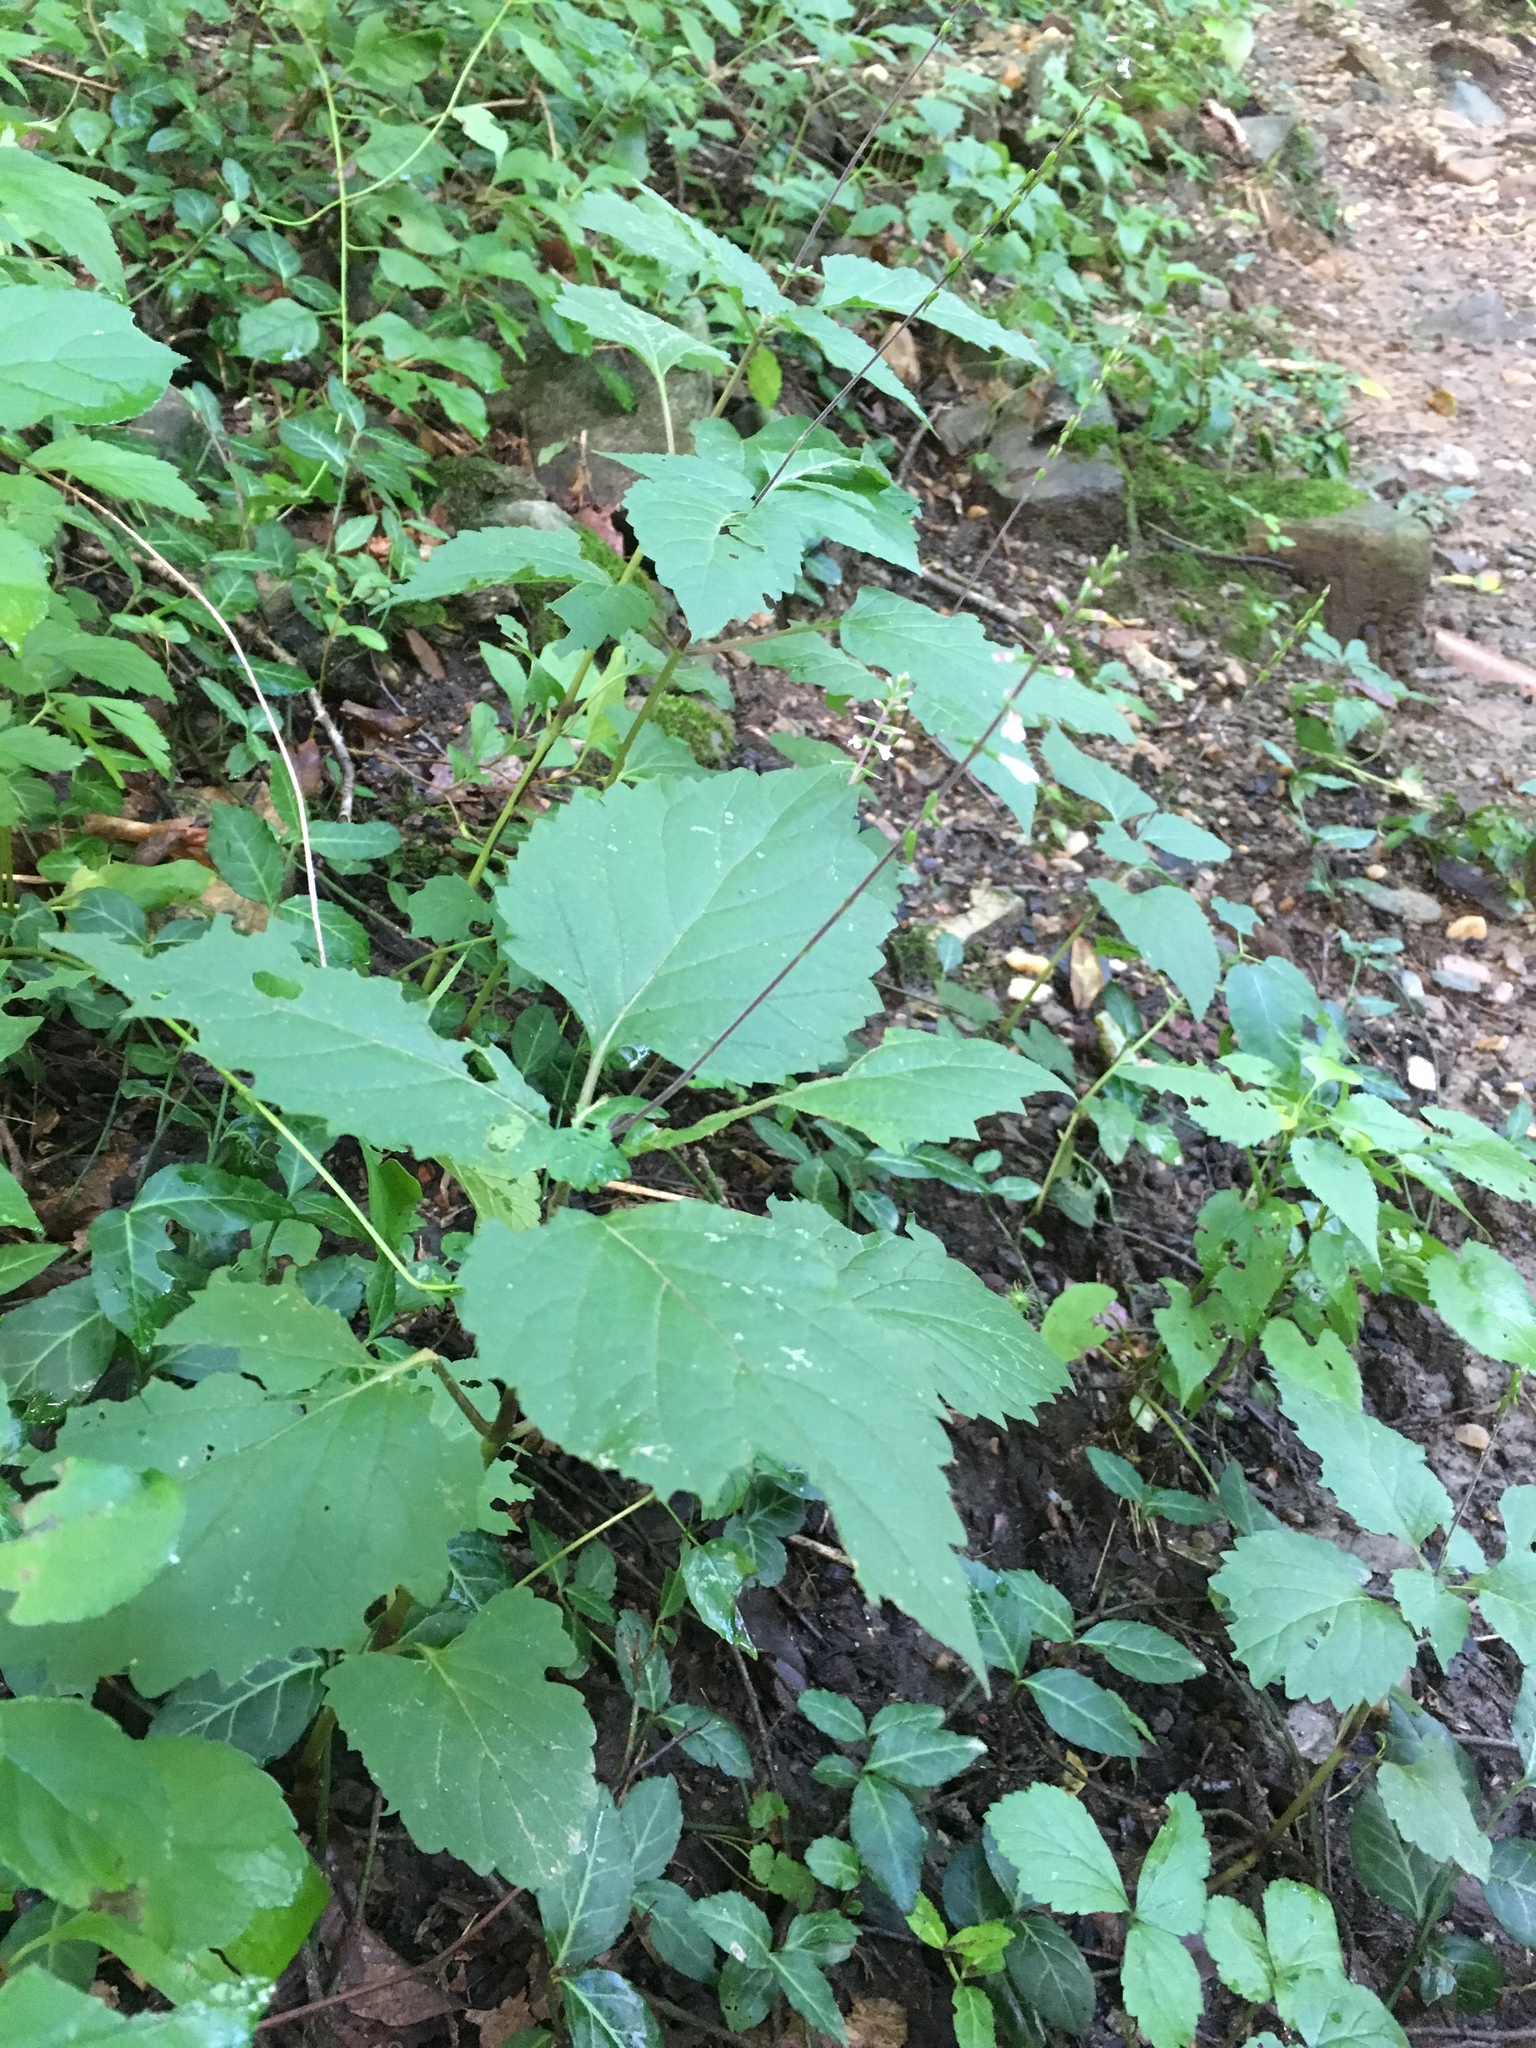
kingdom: Plantae
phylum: Tracheophyta
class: Magnoliopsida
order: Lamiales
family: Phrymaceae
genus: Phryma
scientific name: Phryma leptostachya
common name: American lopseed
